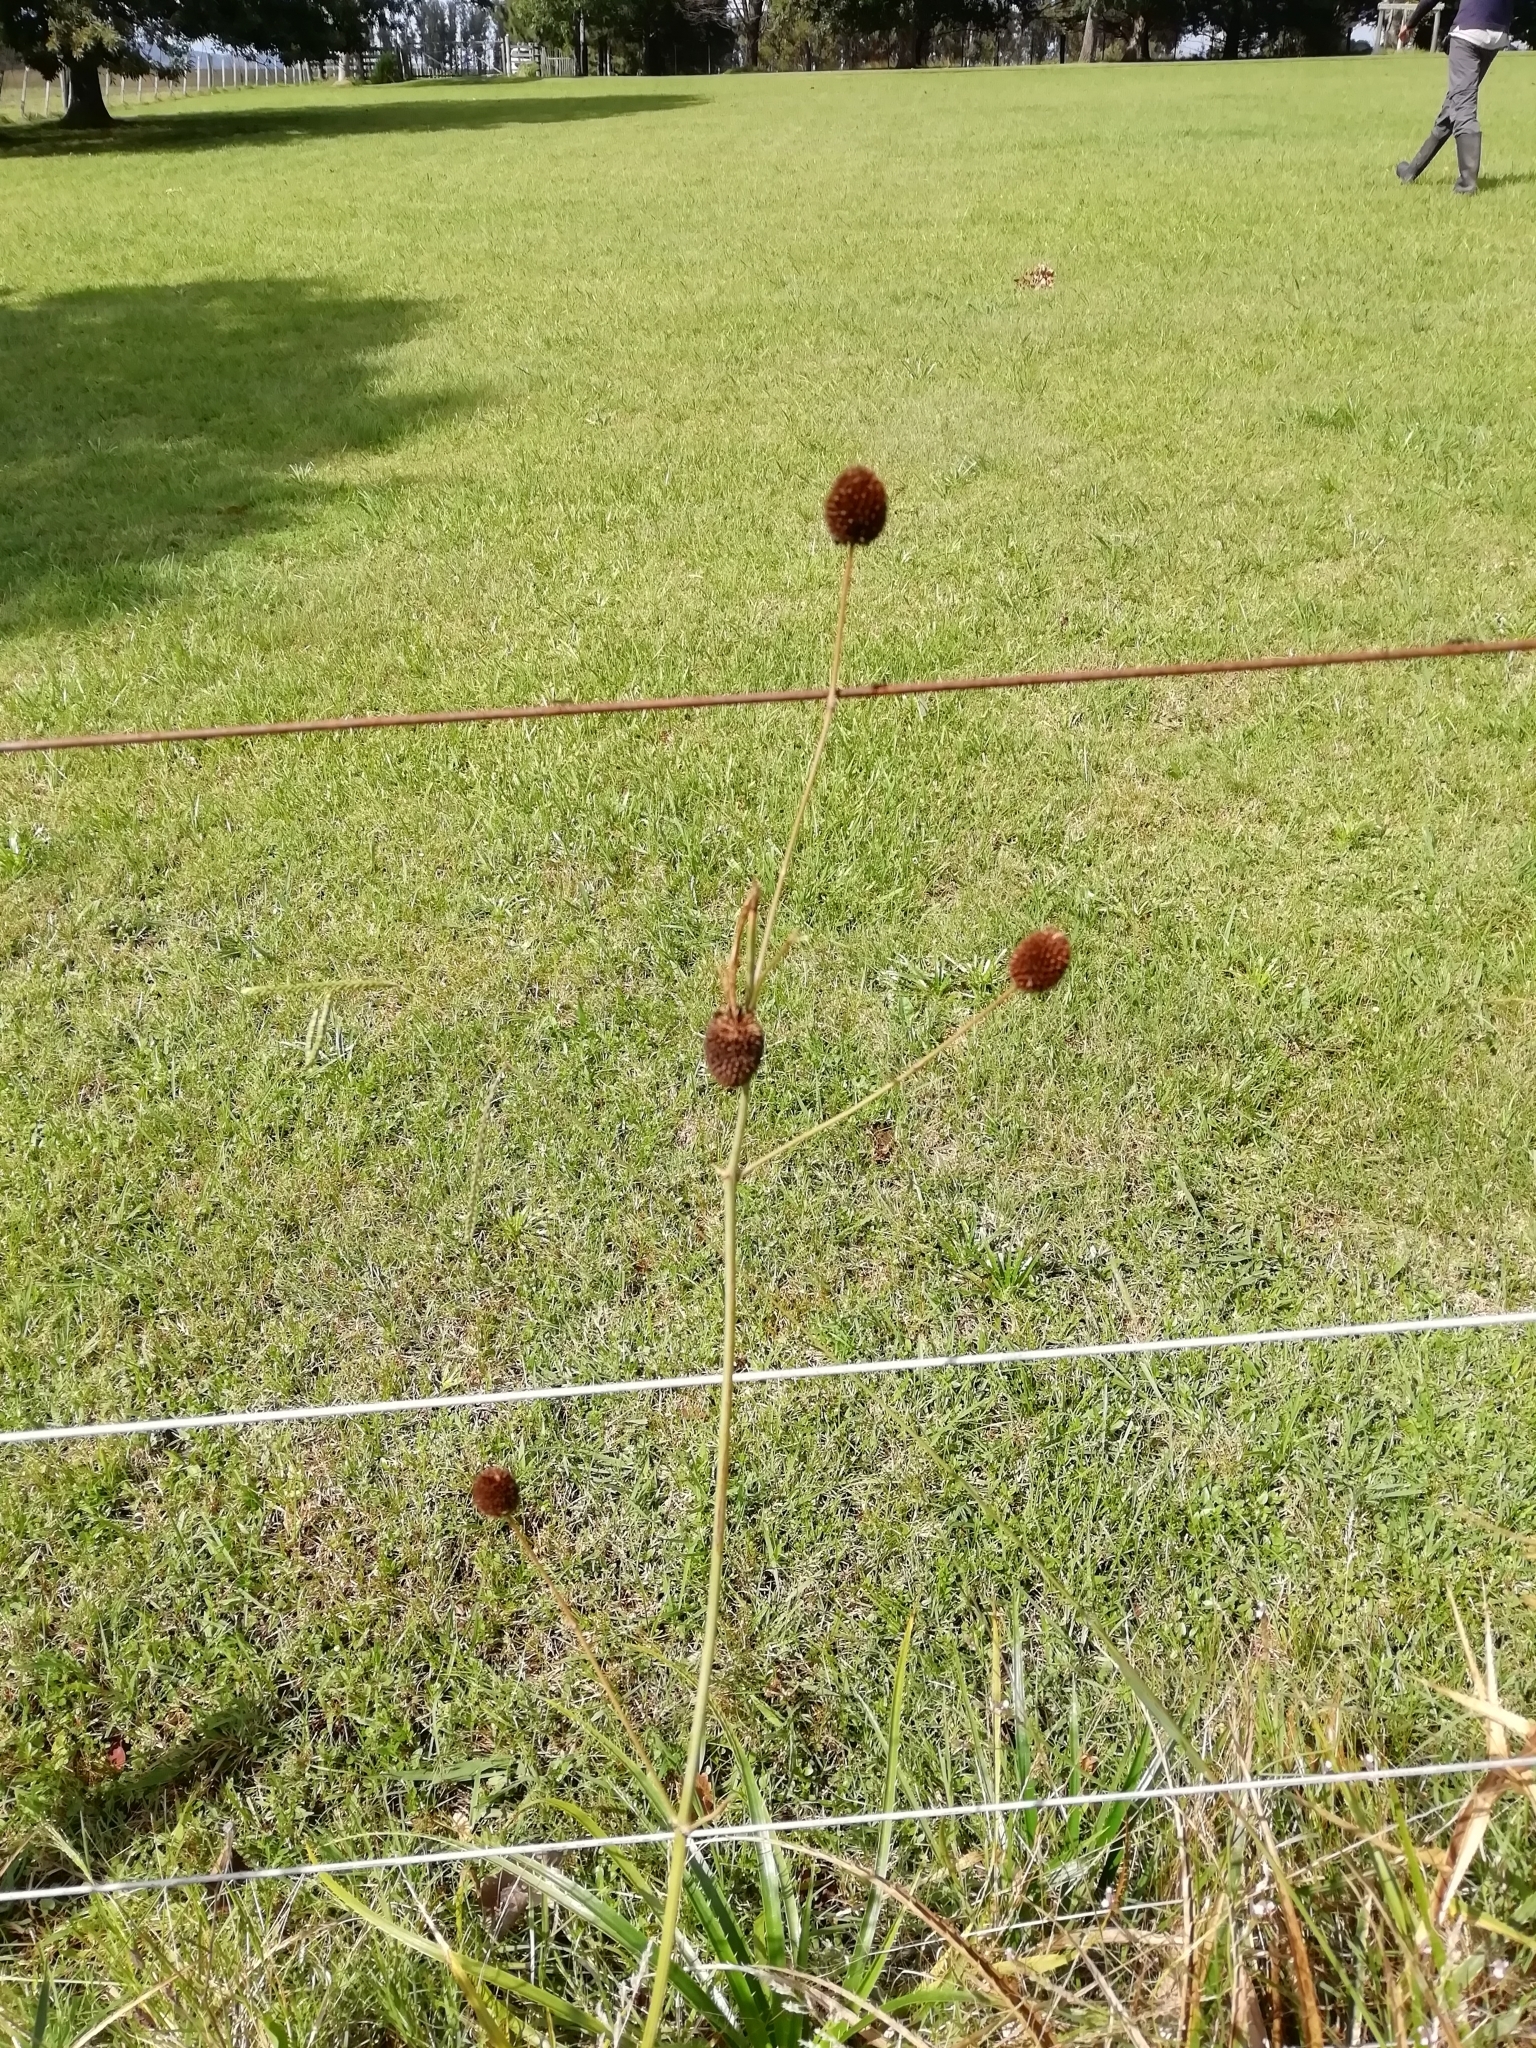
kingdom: Plantae
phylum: Tracheophyta
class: Magnoliopsida
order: Apiales
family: Apiaceae
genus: Eryngium
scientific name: Eryngium sanguisorba
